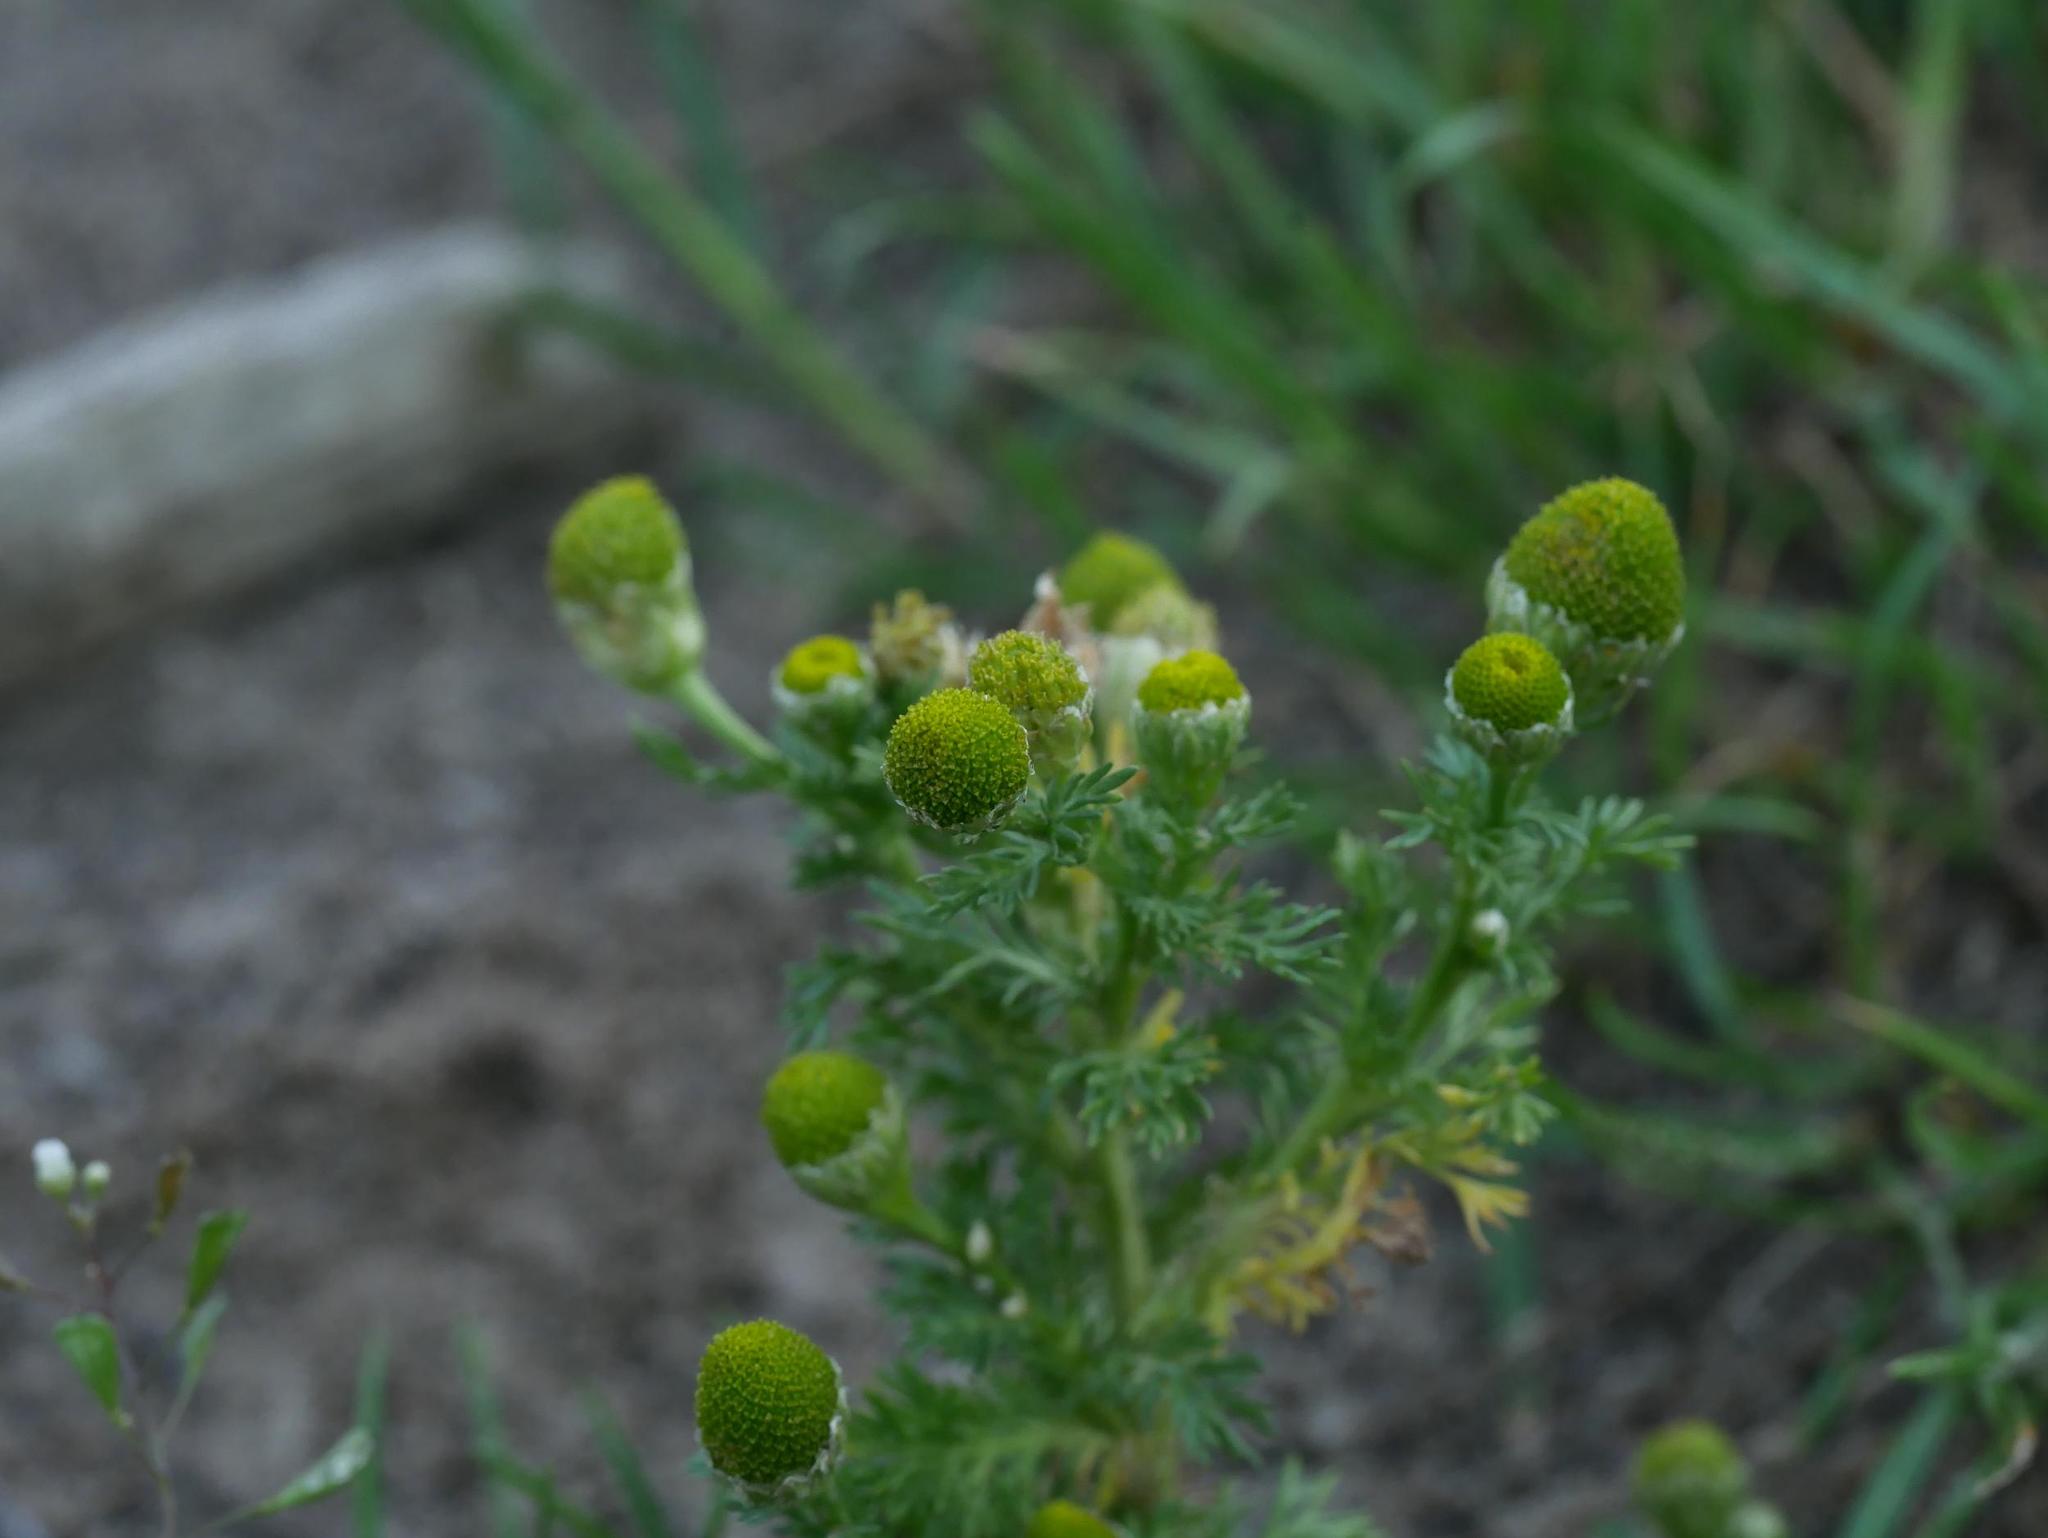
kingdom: Plantae
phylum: Tracheophyta
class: Magnoliopsida
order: Asterales
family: Asteraceae
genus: Matricaria
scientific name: Matricaria discoidea
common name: Disc mayweed
